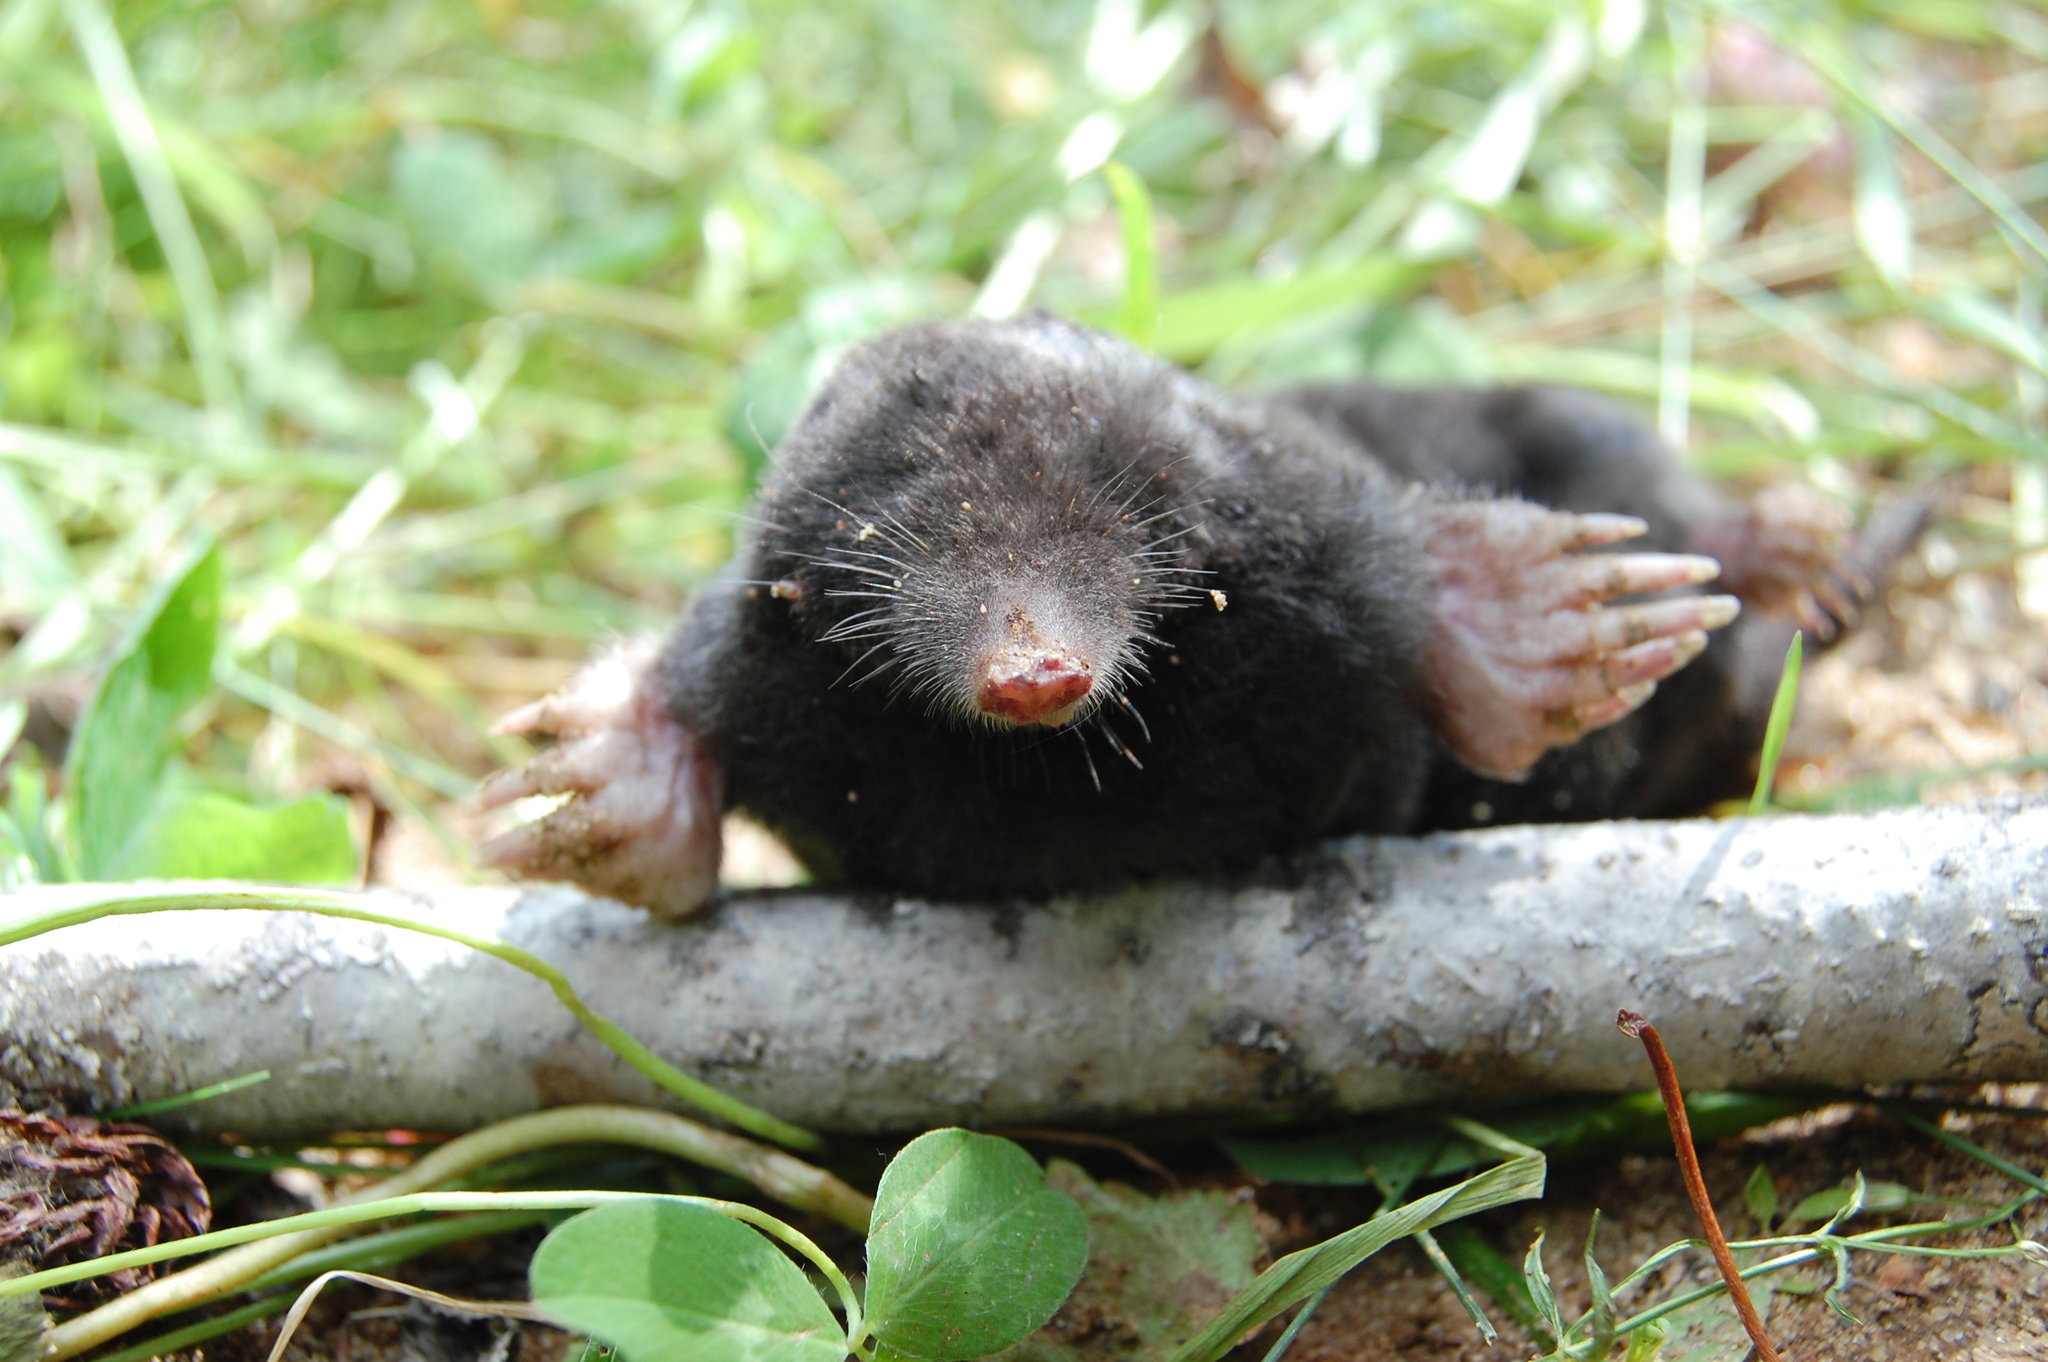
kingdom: Animalia
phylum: Chordata
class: Mammalia
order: Soricomorpha
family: Talpidae
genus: Talpa
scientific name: Talpa europaea
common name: European mole
